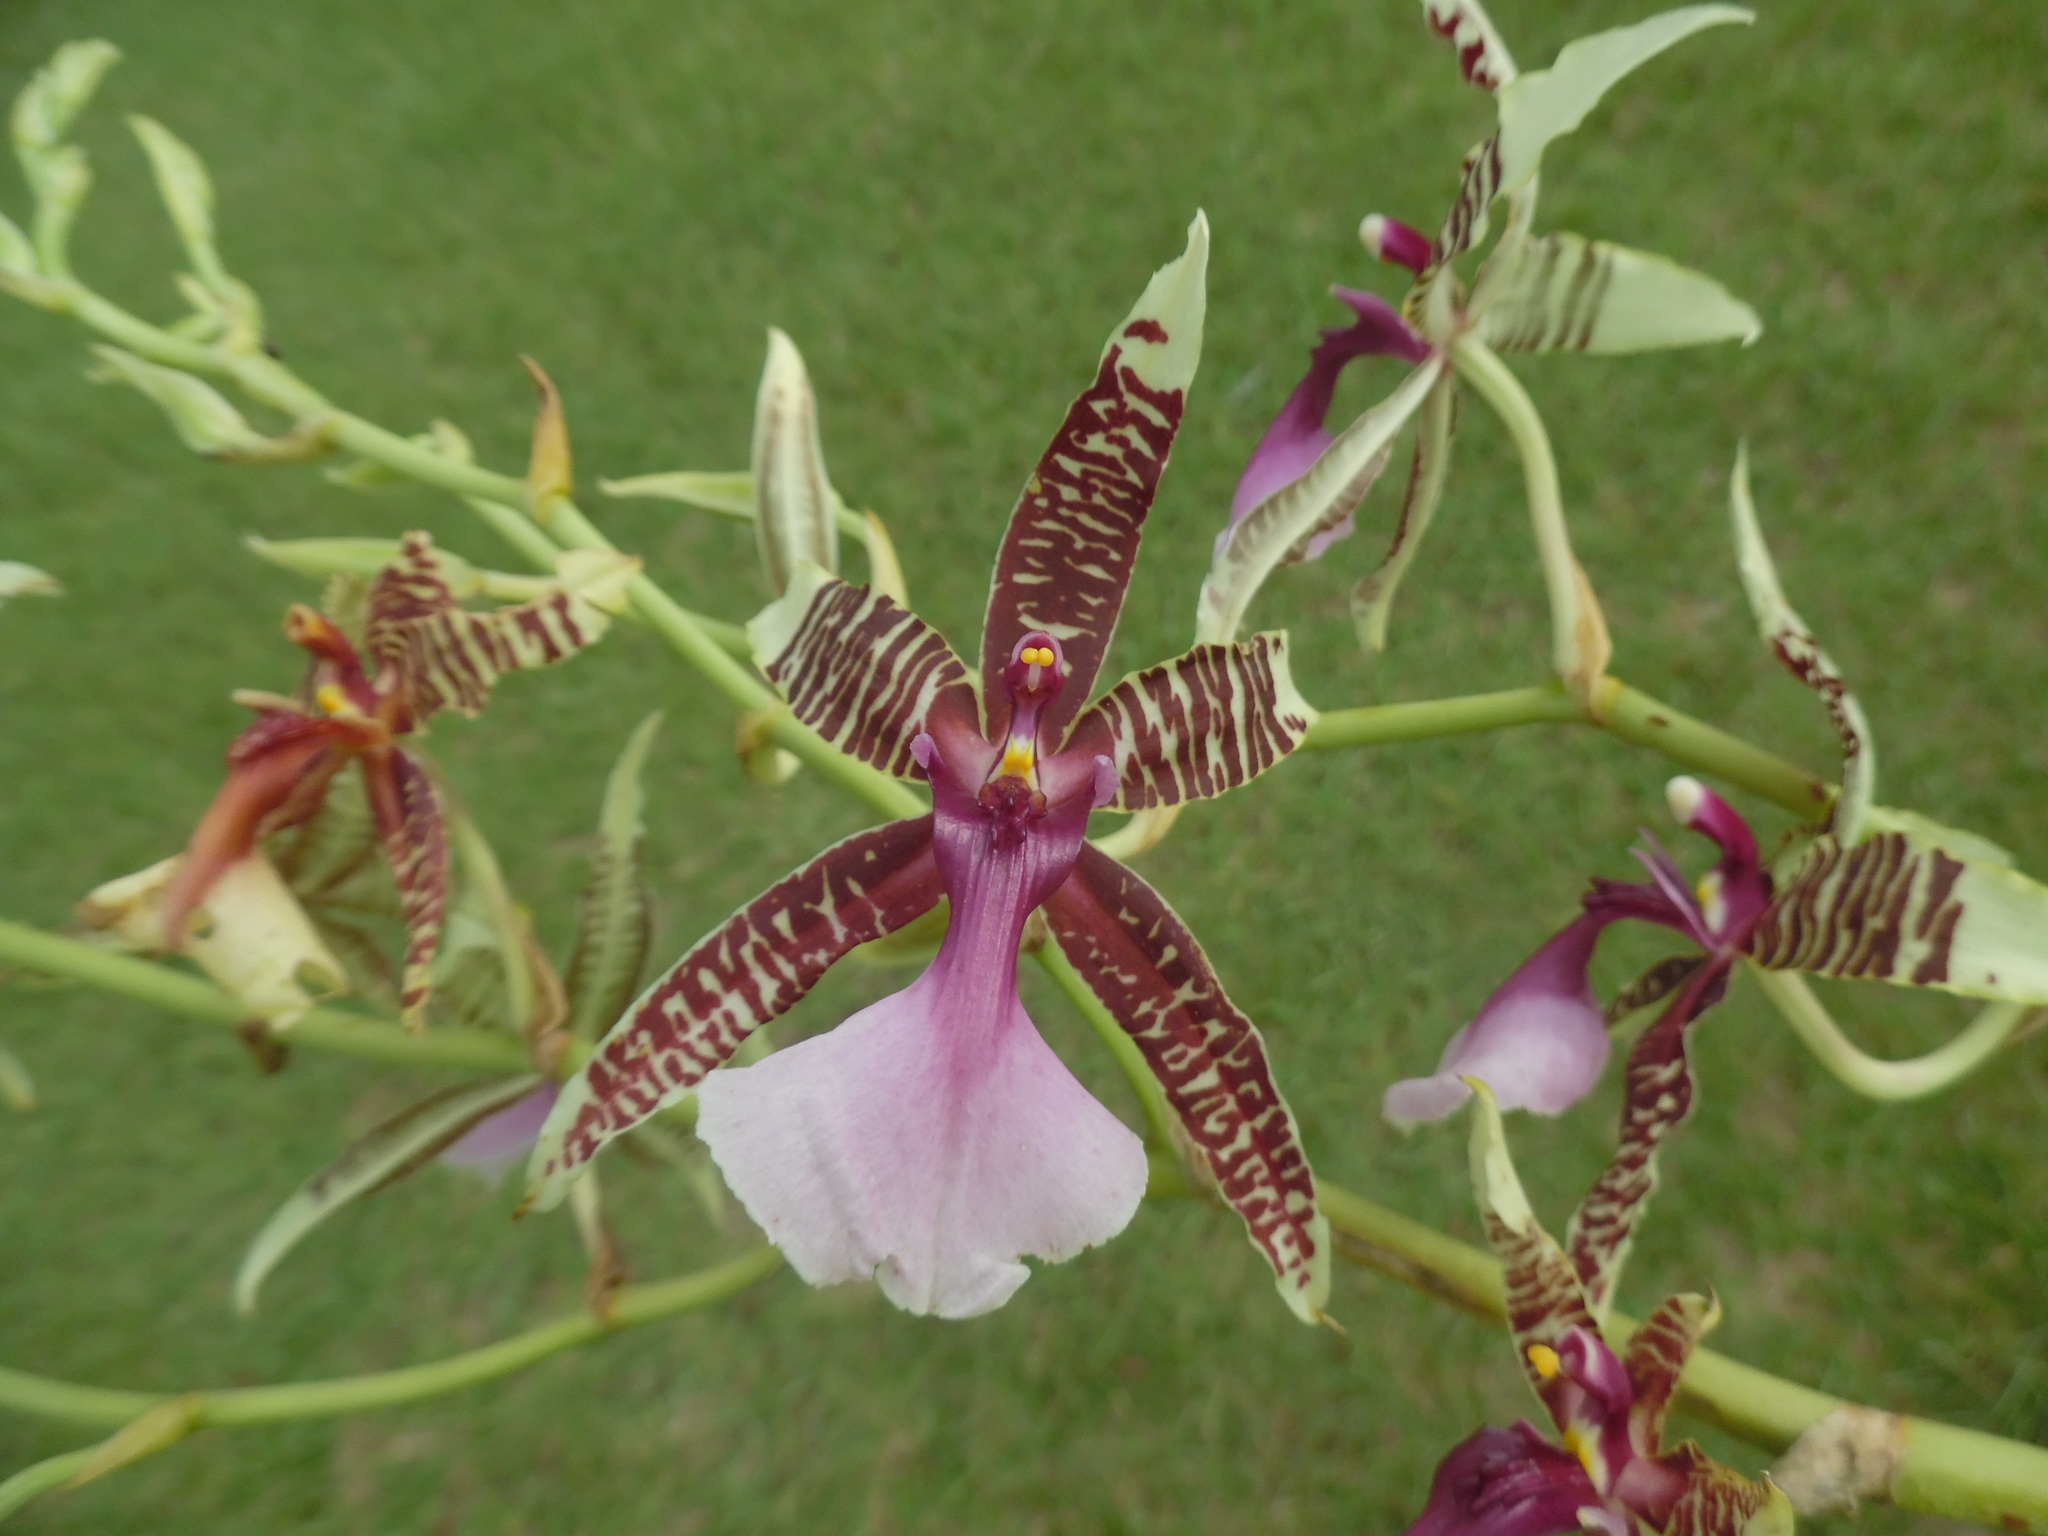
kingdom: Plantae
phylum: Tracheophyta
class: Liliopsida
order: Asparagales
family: Orchidaceae
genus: Oncidium
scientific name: Oncidium hastilabium
